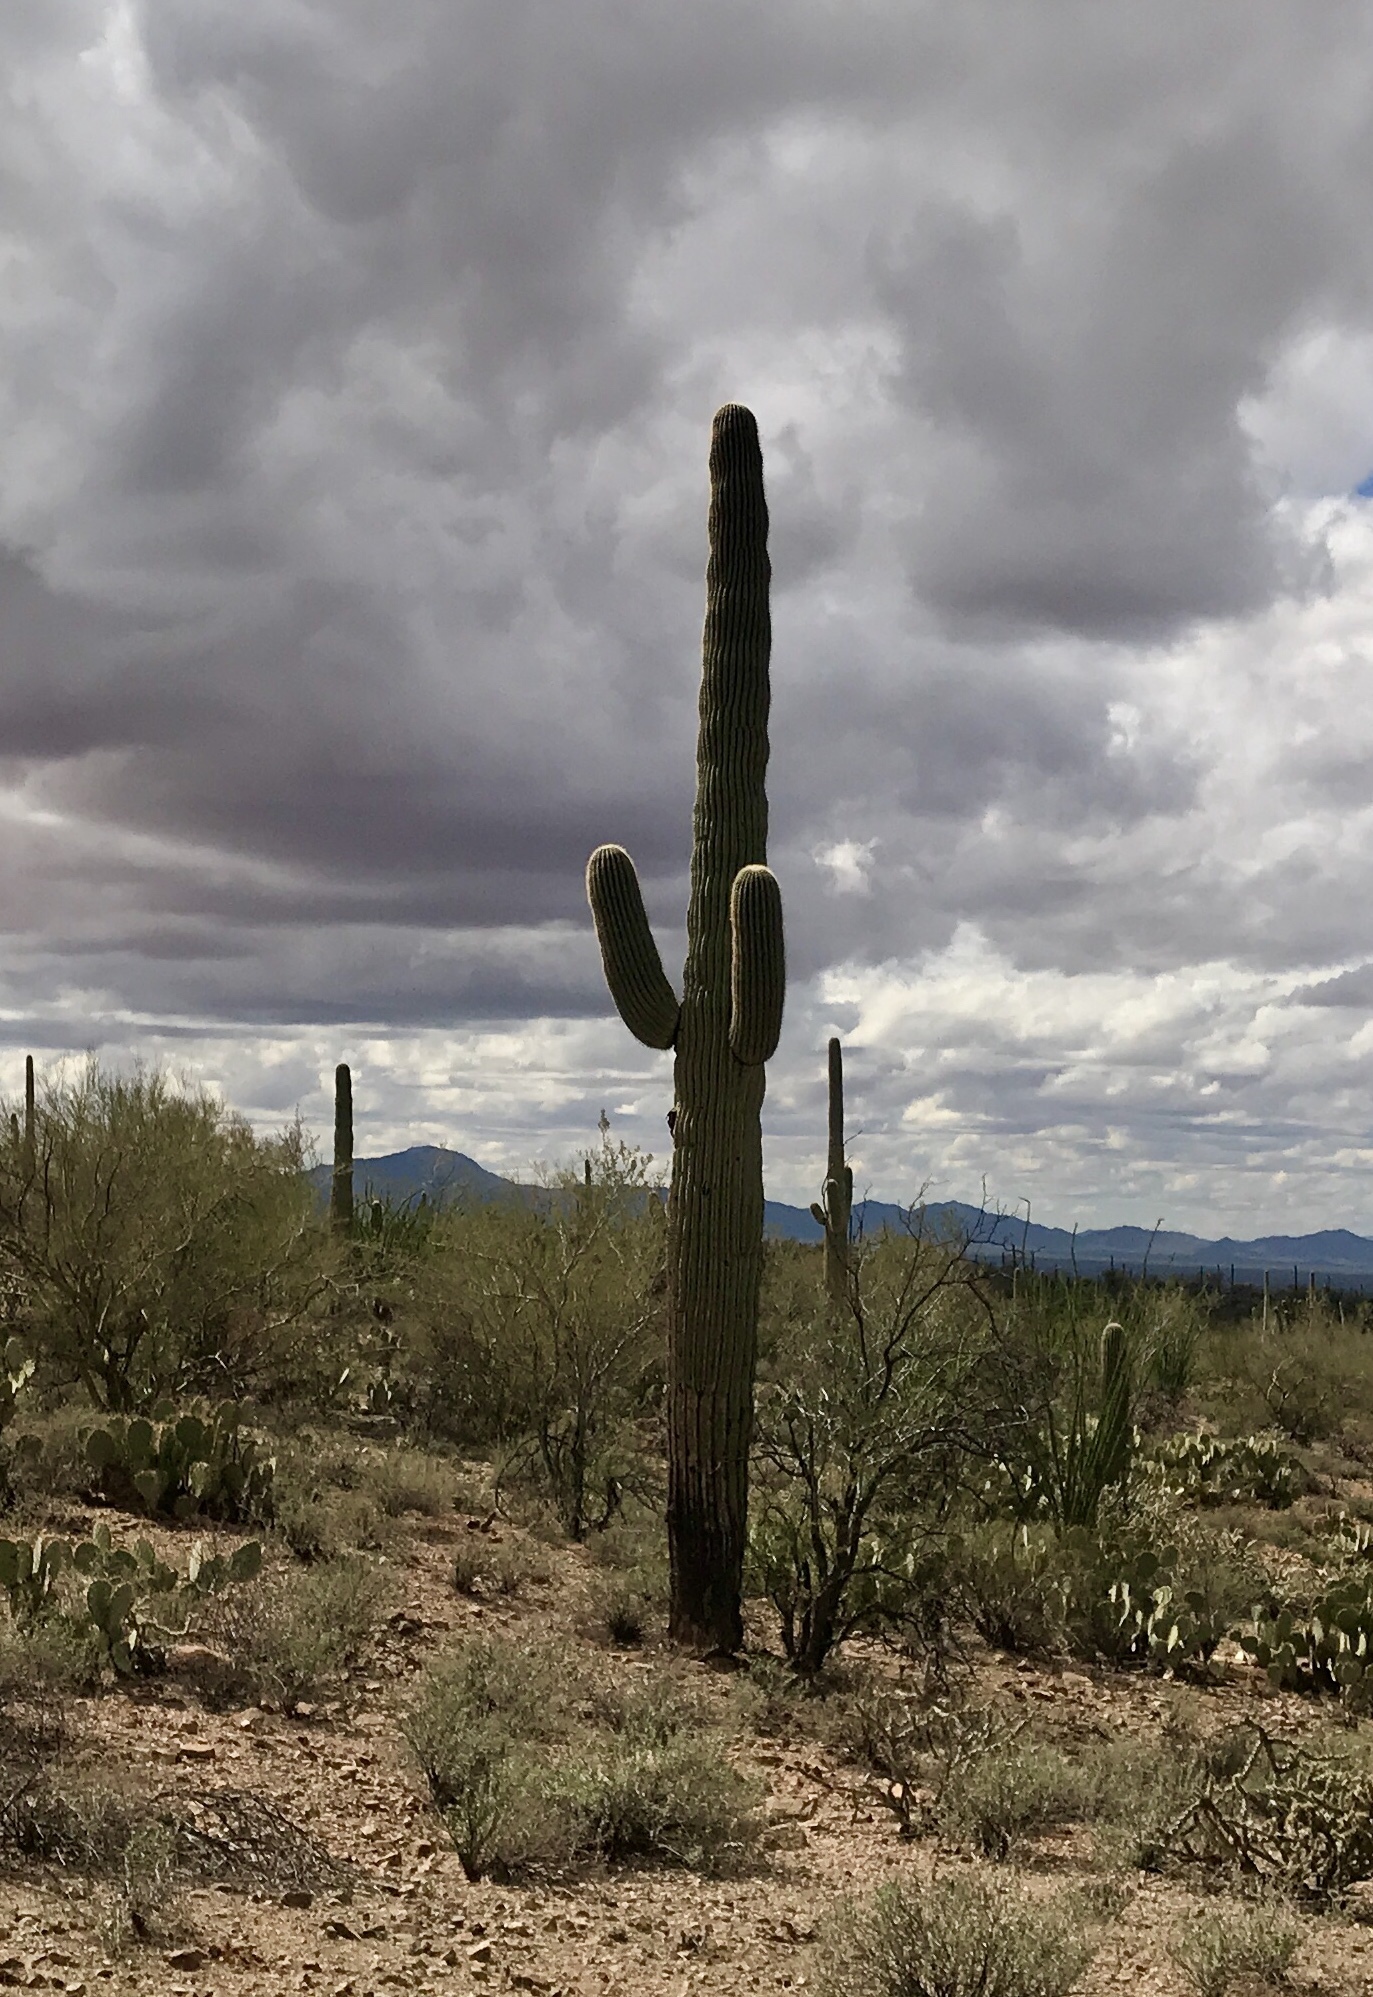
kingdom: Plantae
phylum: Tracheophyta
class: Magnoliopsida
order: Caryophyllales
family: Cactaceae
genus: Carnegiea
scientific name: Carnegiea gigantea
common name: Saguaro
